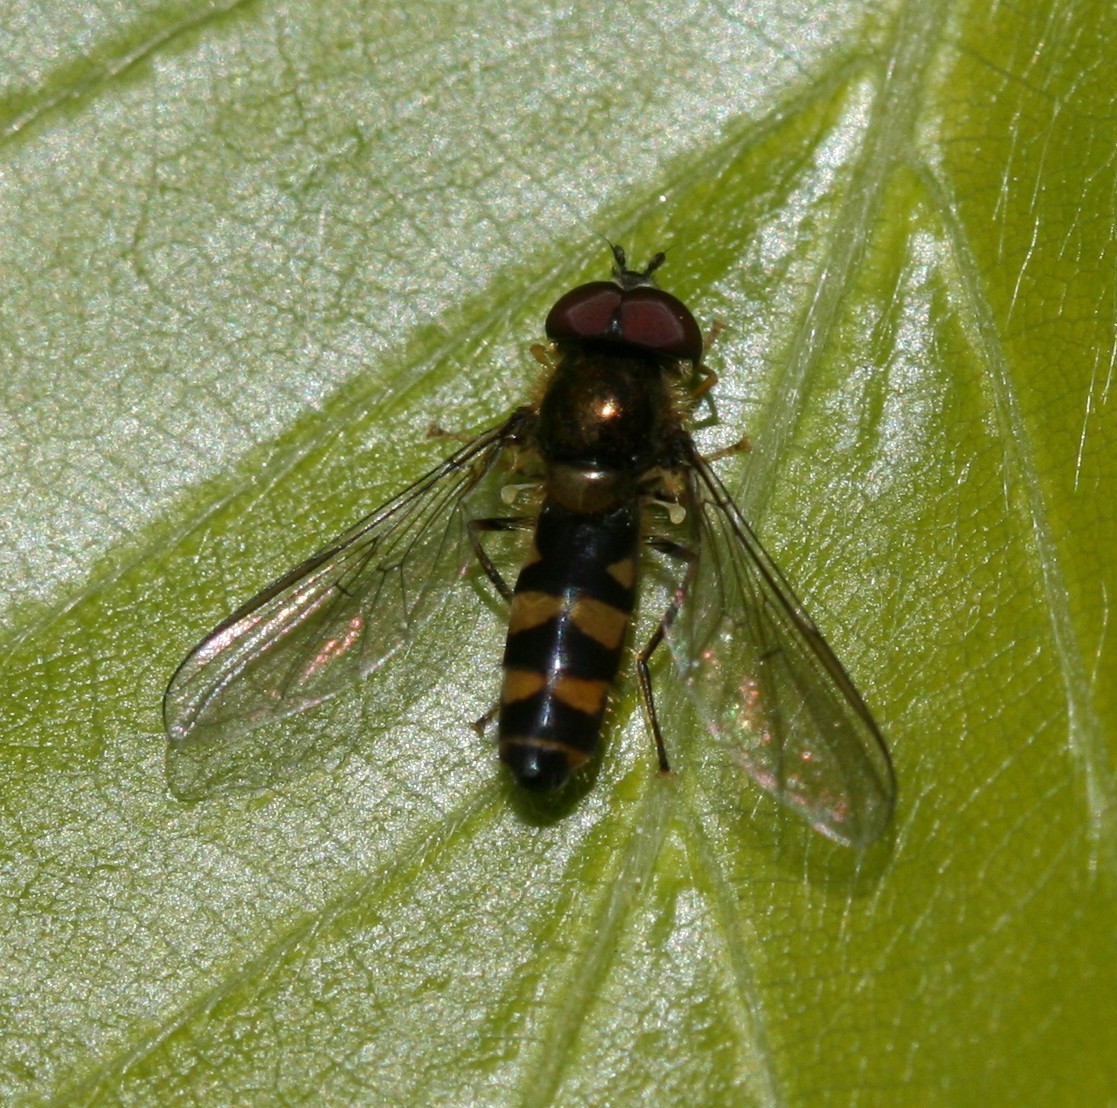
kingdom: Animalia
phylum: Arthropoda
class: Insecta
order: Diptera
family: Syrphidae
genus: Fagisyrphus
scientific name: Fagisyrphus cincta
